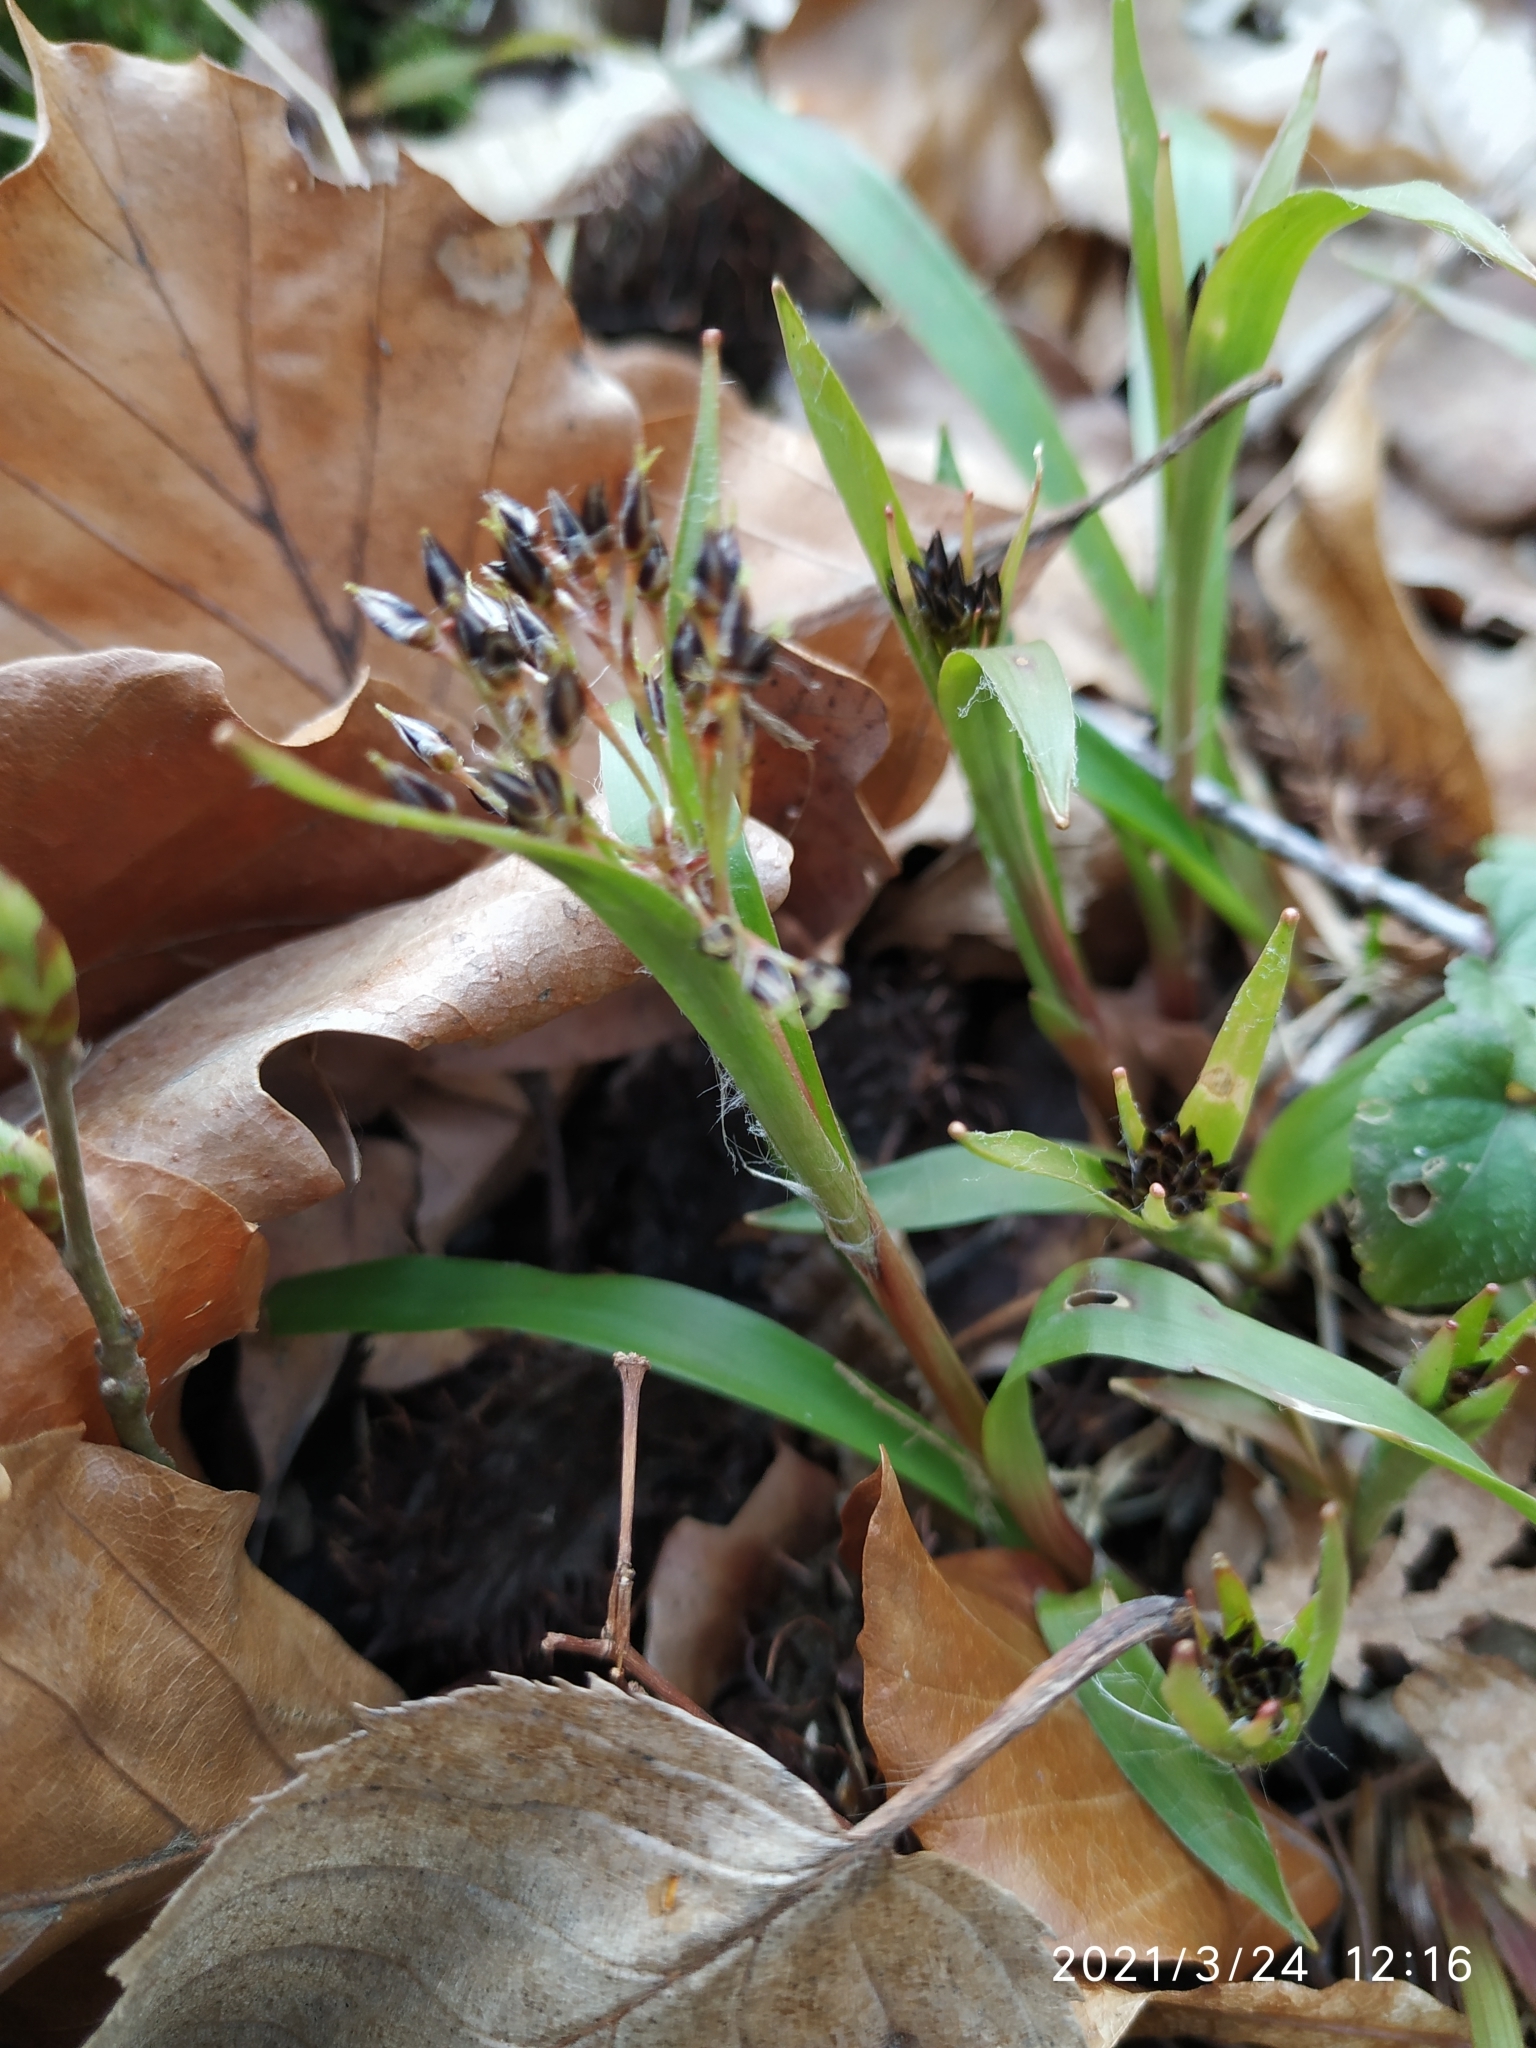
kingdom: Plantae
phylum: Tracheophyta
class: Liliopsida
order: Poales
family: Juncaceae
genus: Luzula
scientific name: Luzula pilosa
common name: Hairy wood-rush
